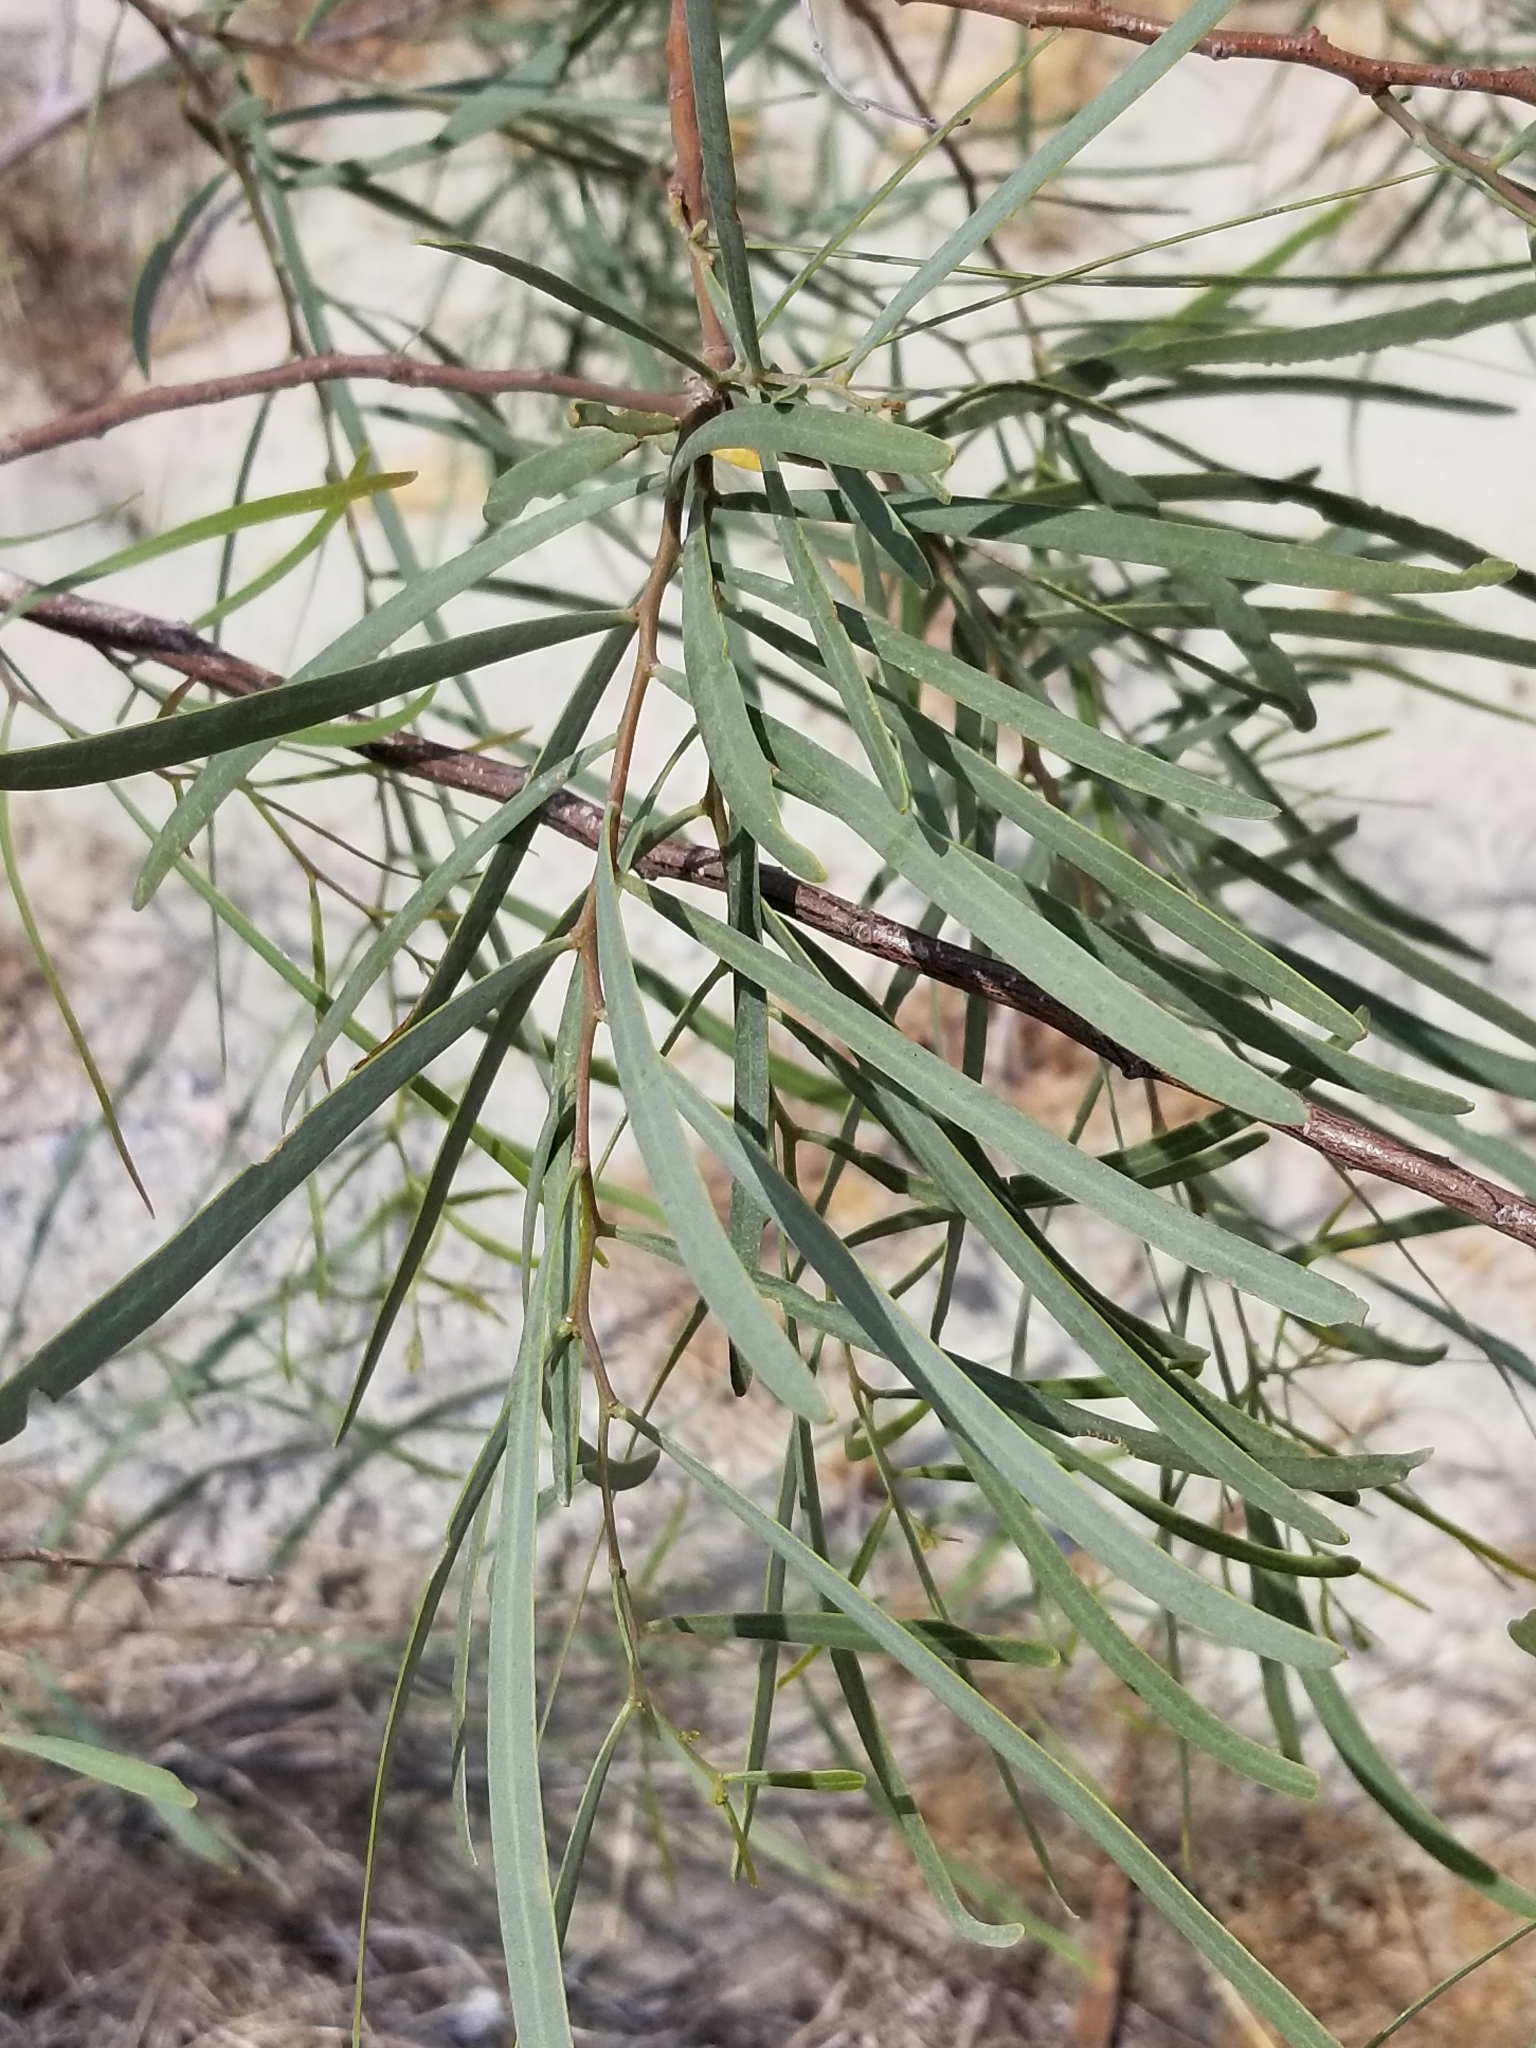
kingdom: Plantae
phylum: Tracheophyta
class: Magnoliopsida
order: Lamiales
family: Bignoniaceae
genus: Chilopsis
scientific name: Chilopsis linearis
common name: Desert-willow
